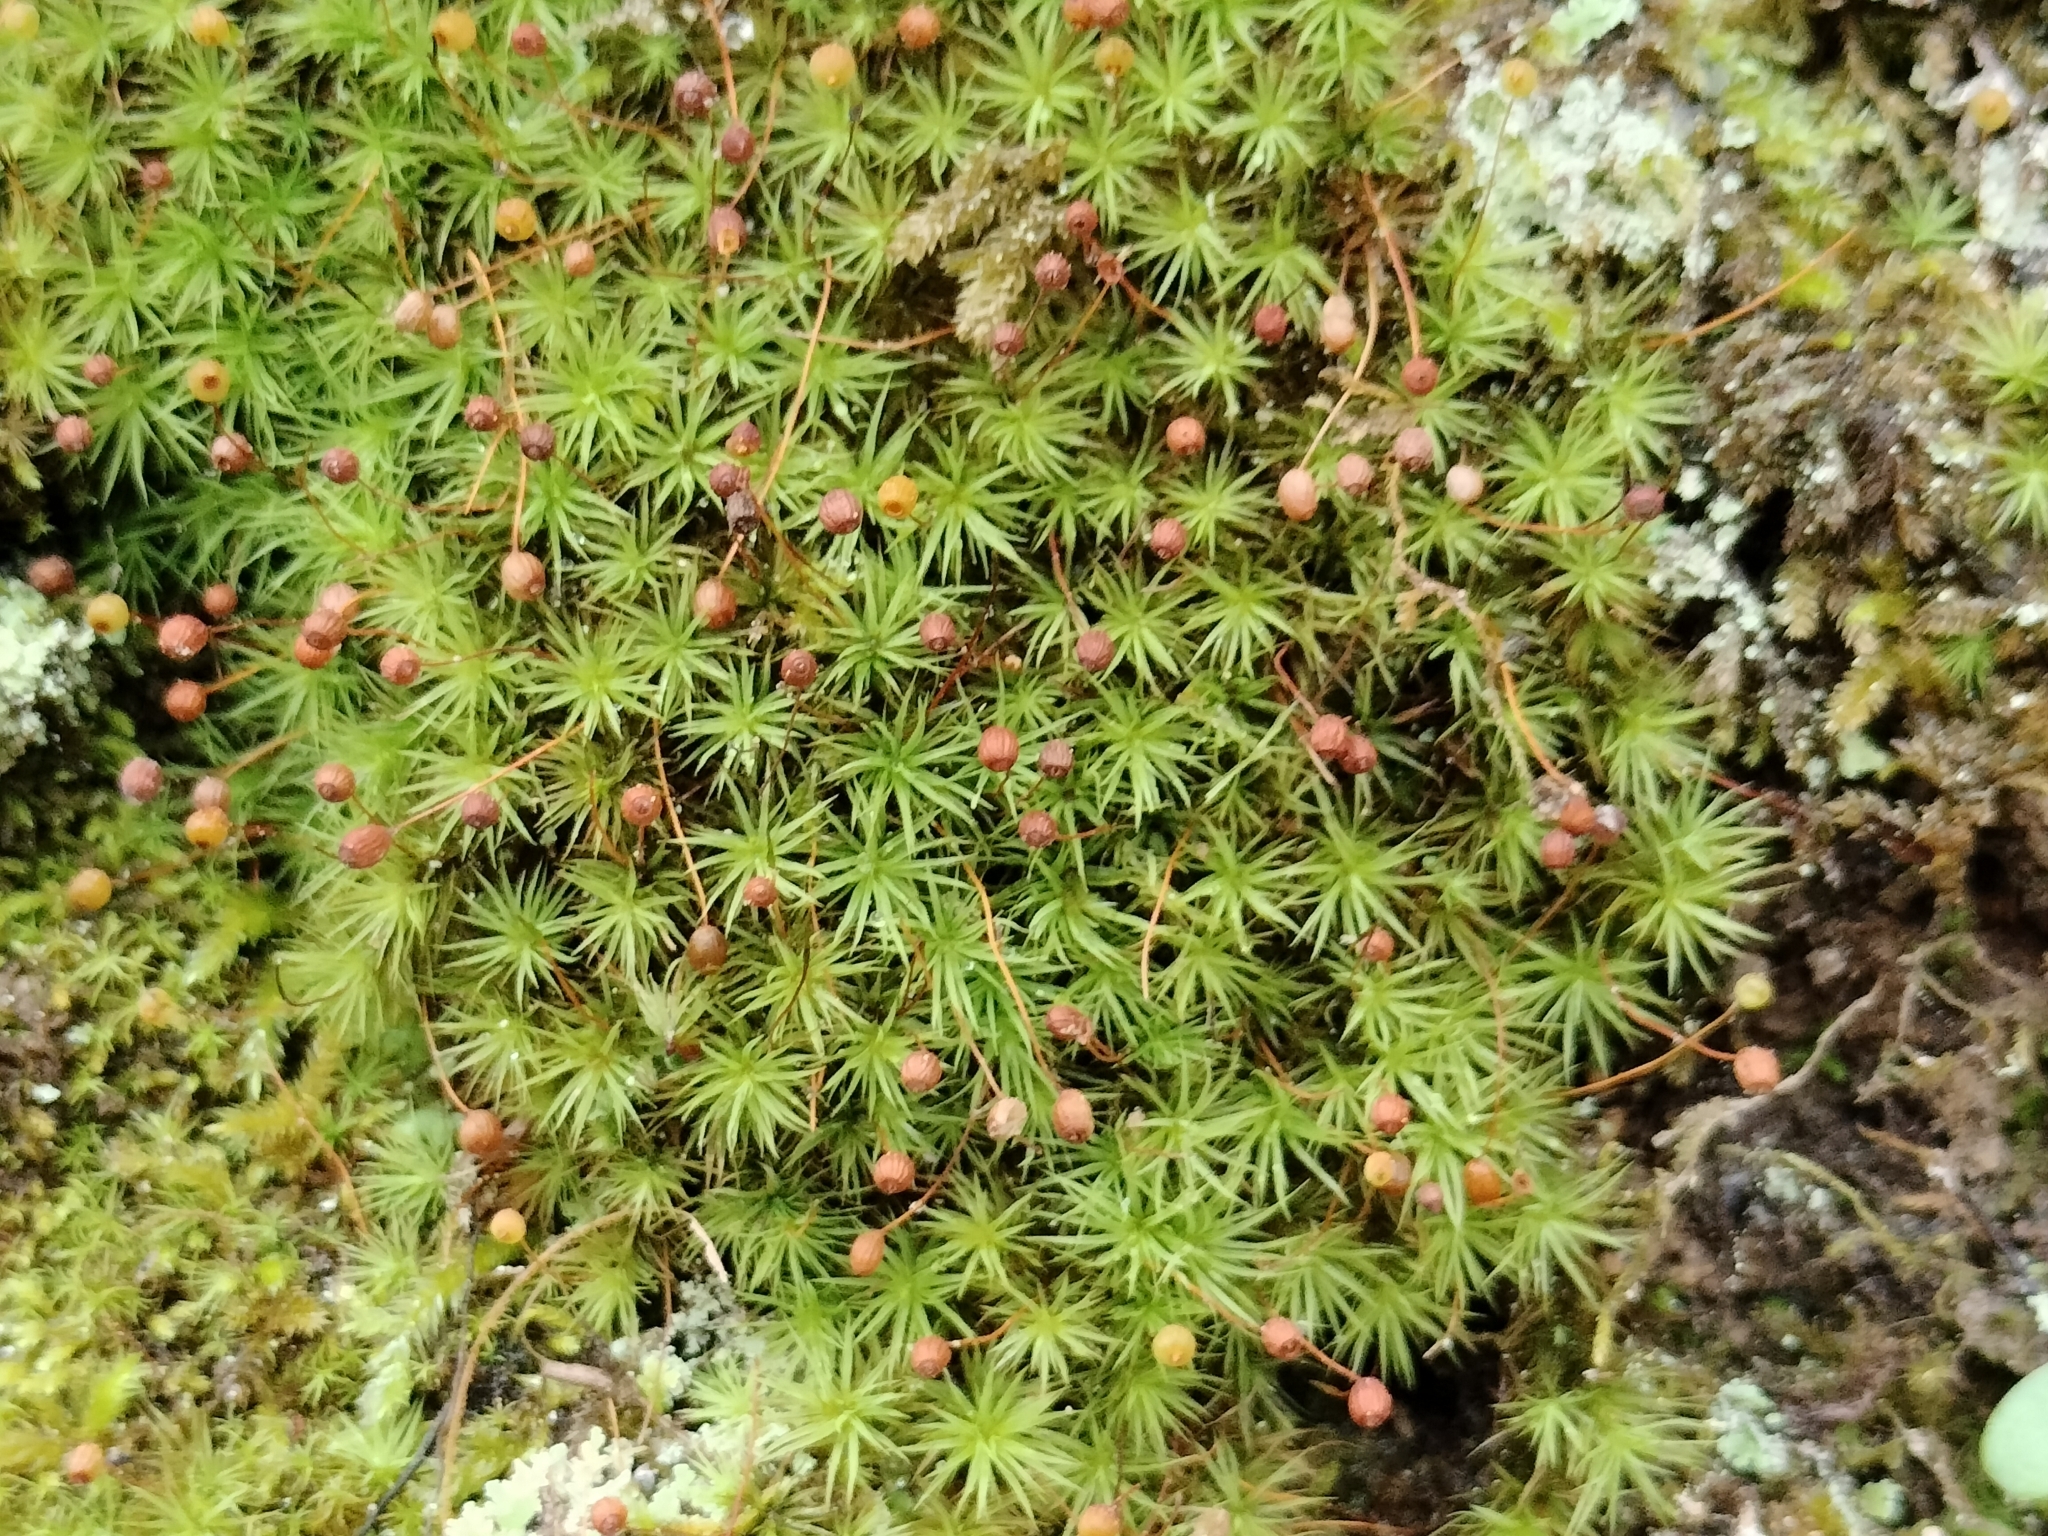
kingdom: Plantae
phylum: Bryophyta
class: Bryopsida
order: Bartramiales
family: Bartramiaceae
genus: Bartramia
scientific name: Bartramia ithyphylla
